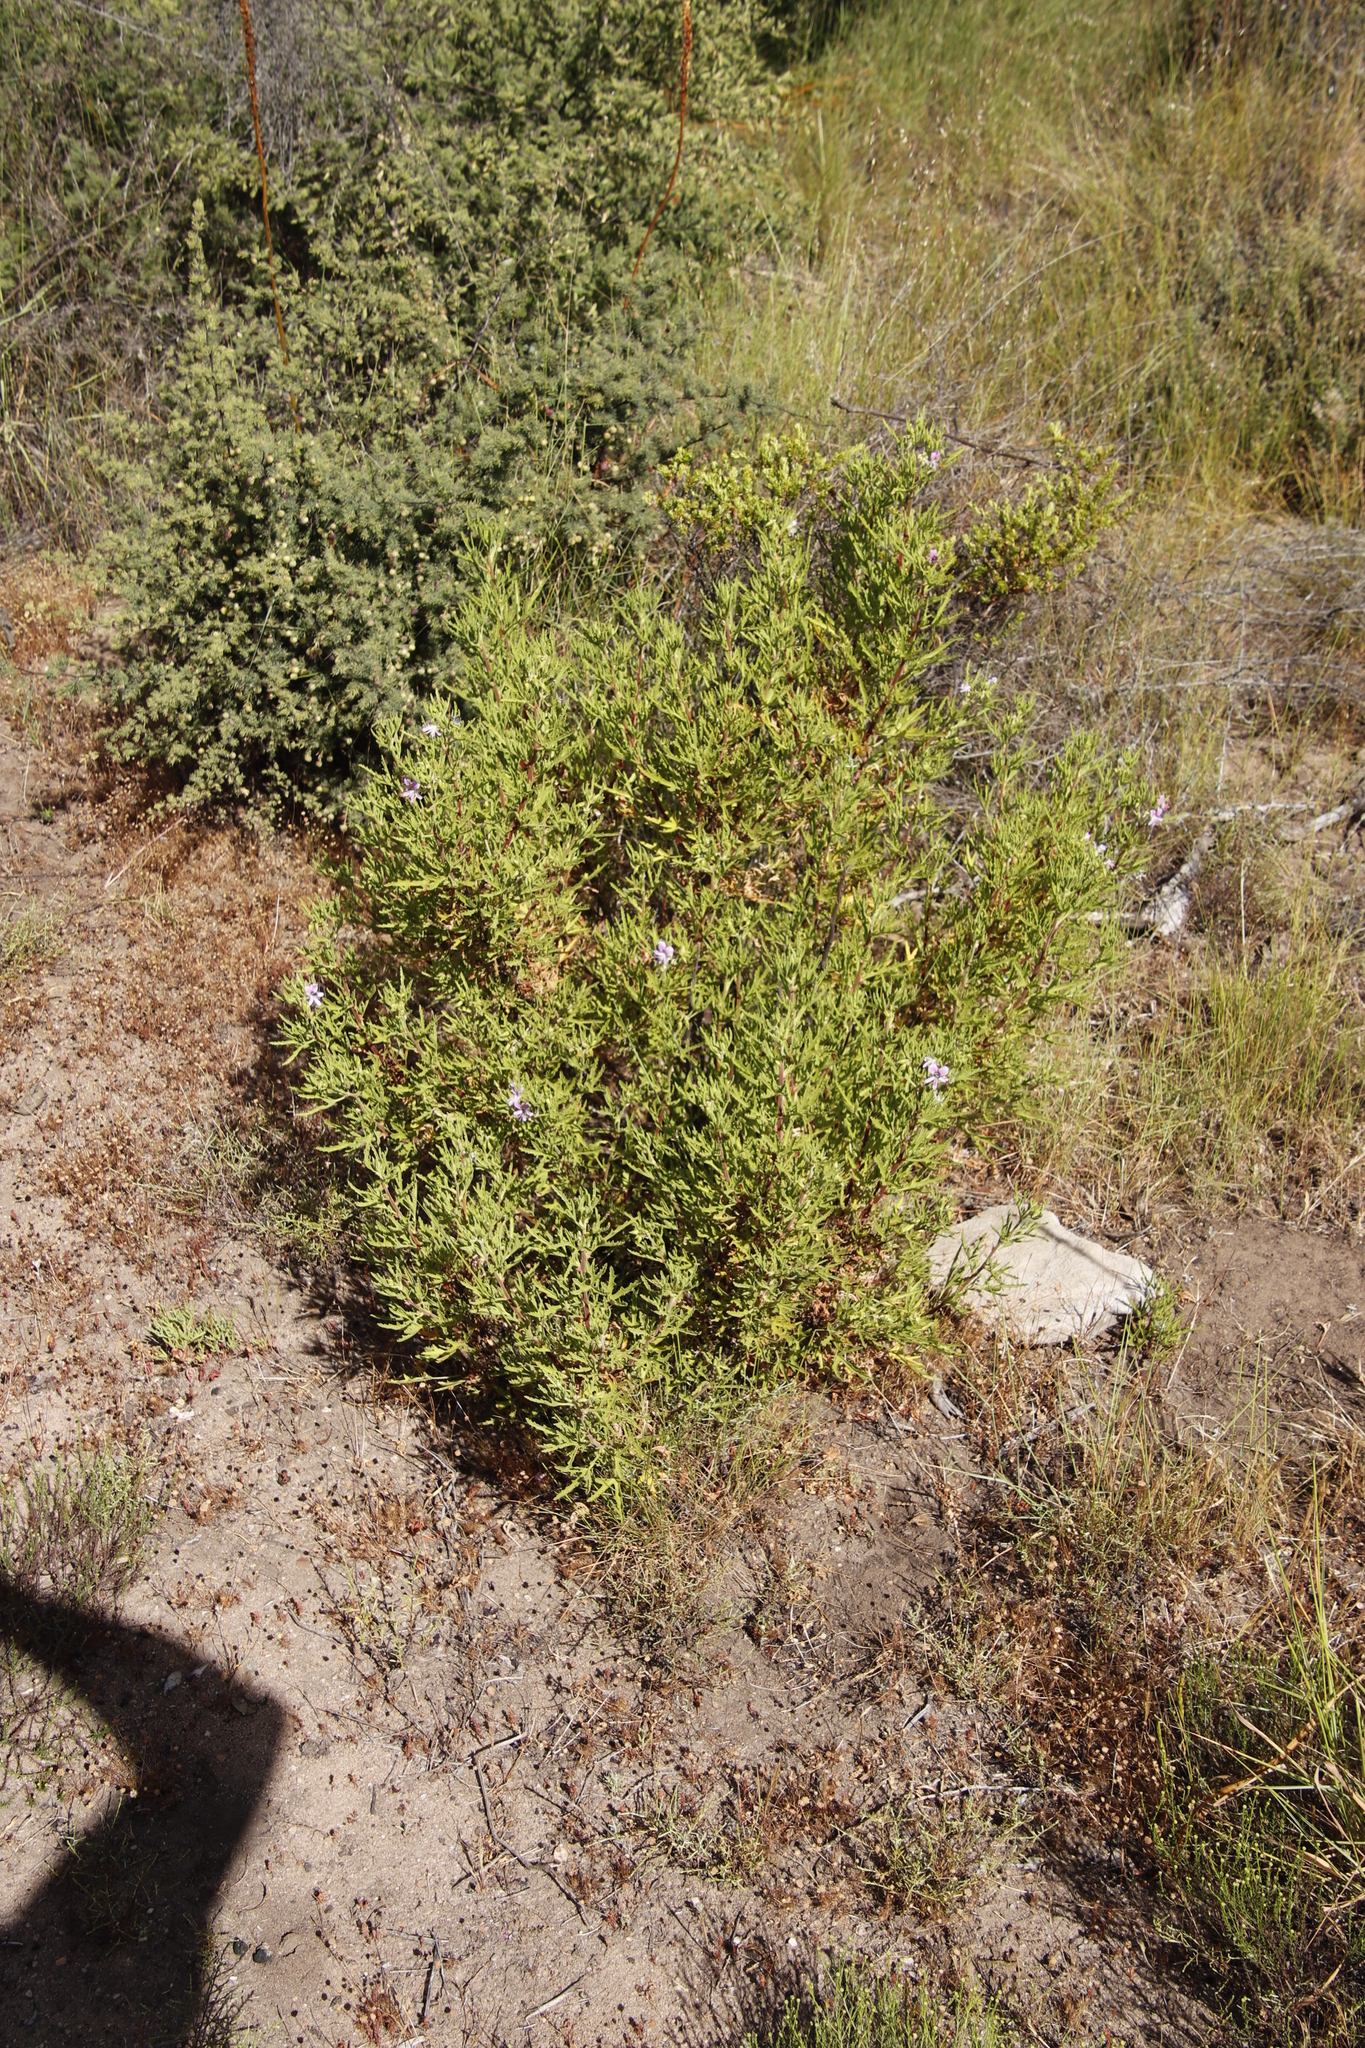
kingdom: Plantae
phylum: Tracheophyta
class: Magnoliopsida
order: Geraniales
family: Geraniaceae
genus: Pelargonium
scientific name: Pelargonium scabrum
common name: Apricot geranium
